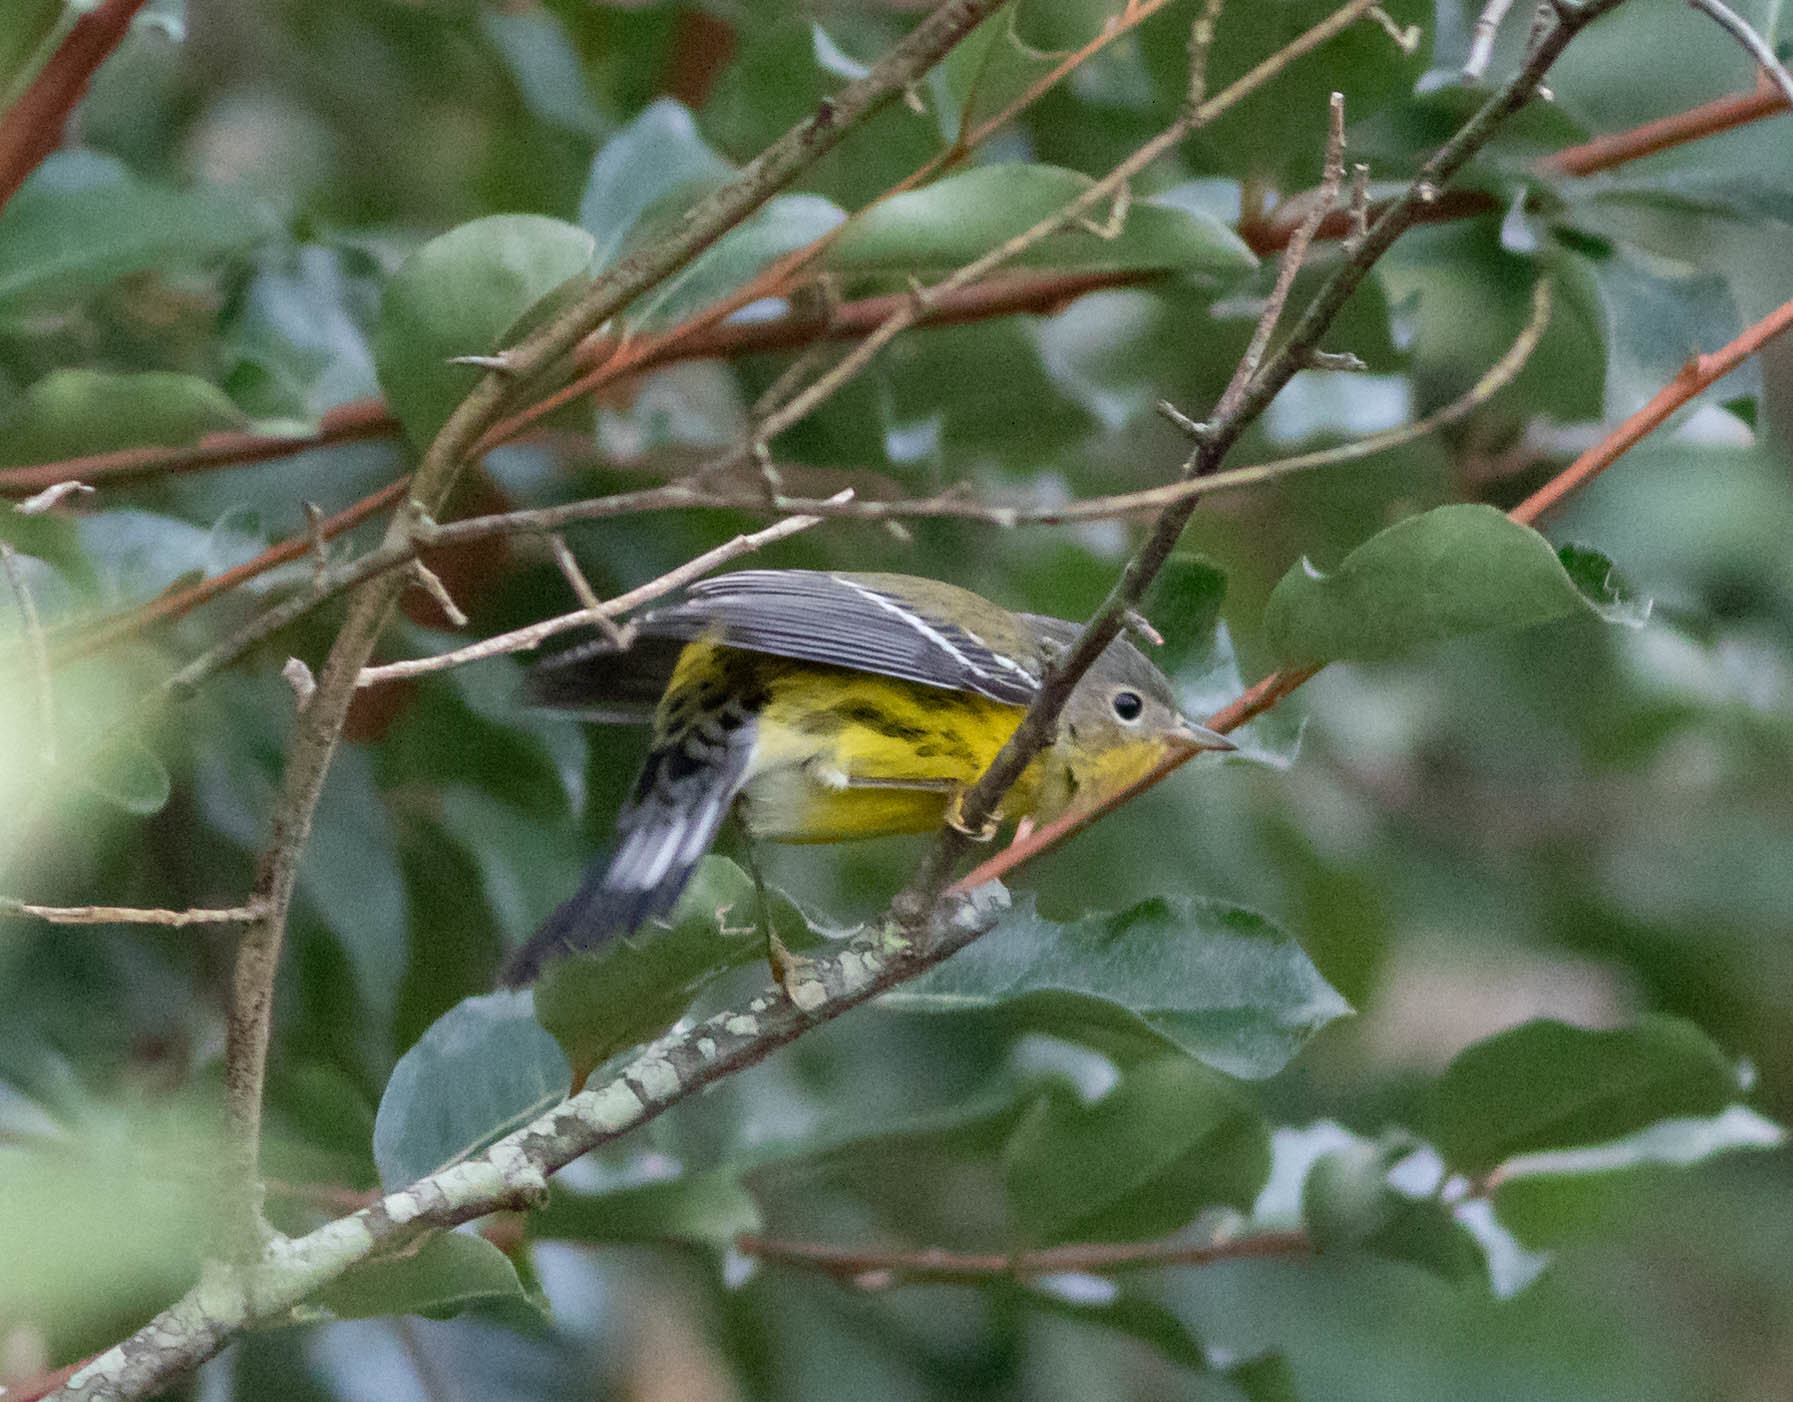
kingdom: Animalia
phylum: Chordata
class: Aves
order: Passeriformes
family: Parulidae
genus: Setophaga
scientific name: Setophaga magnolia
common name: Magnolia warbler
